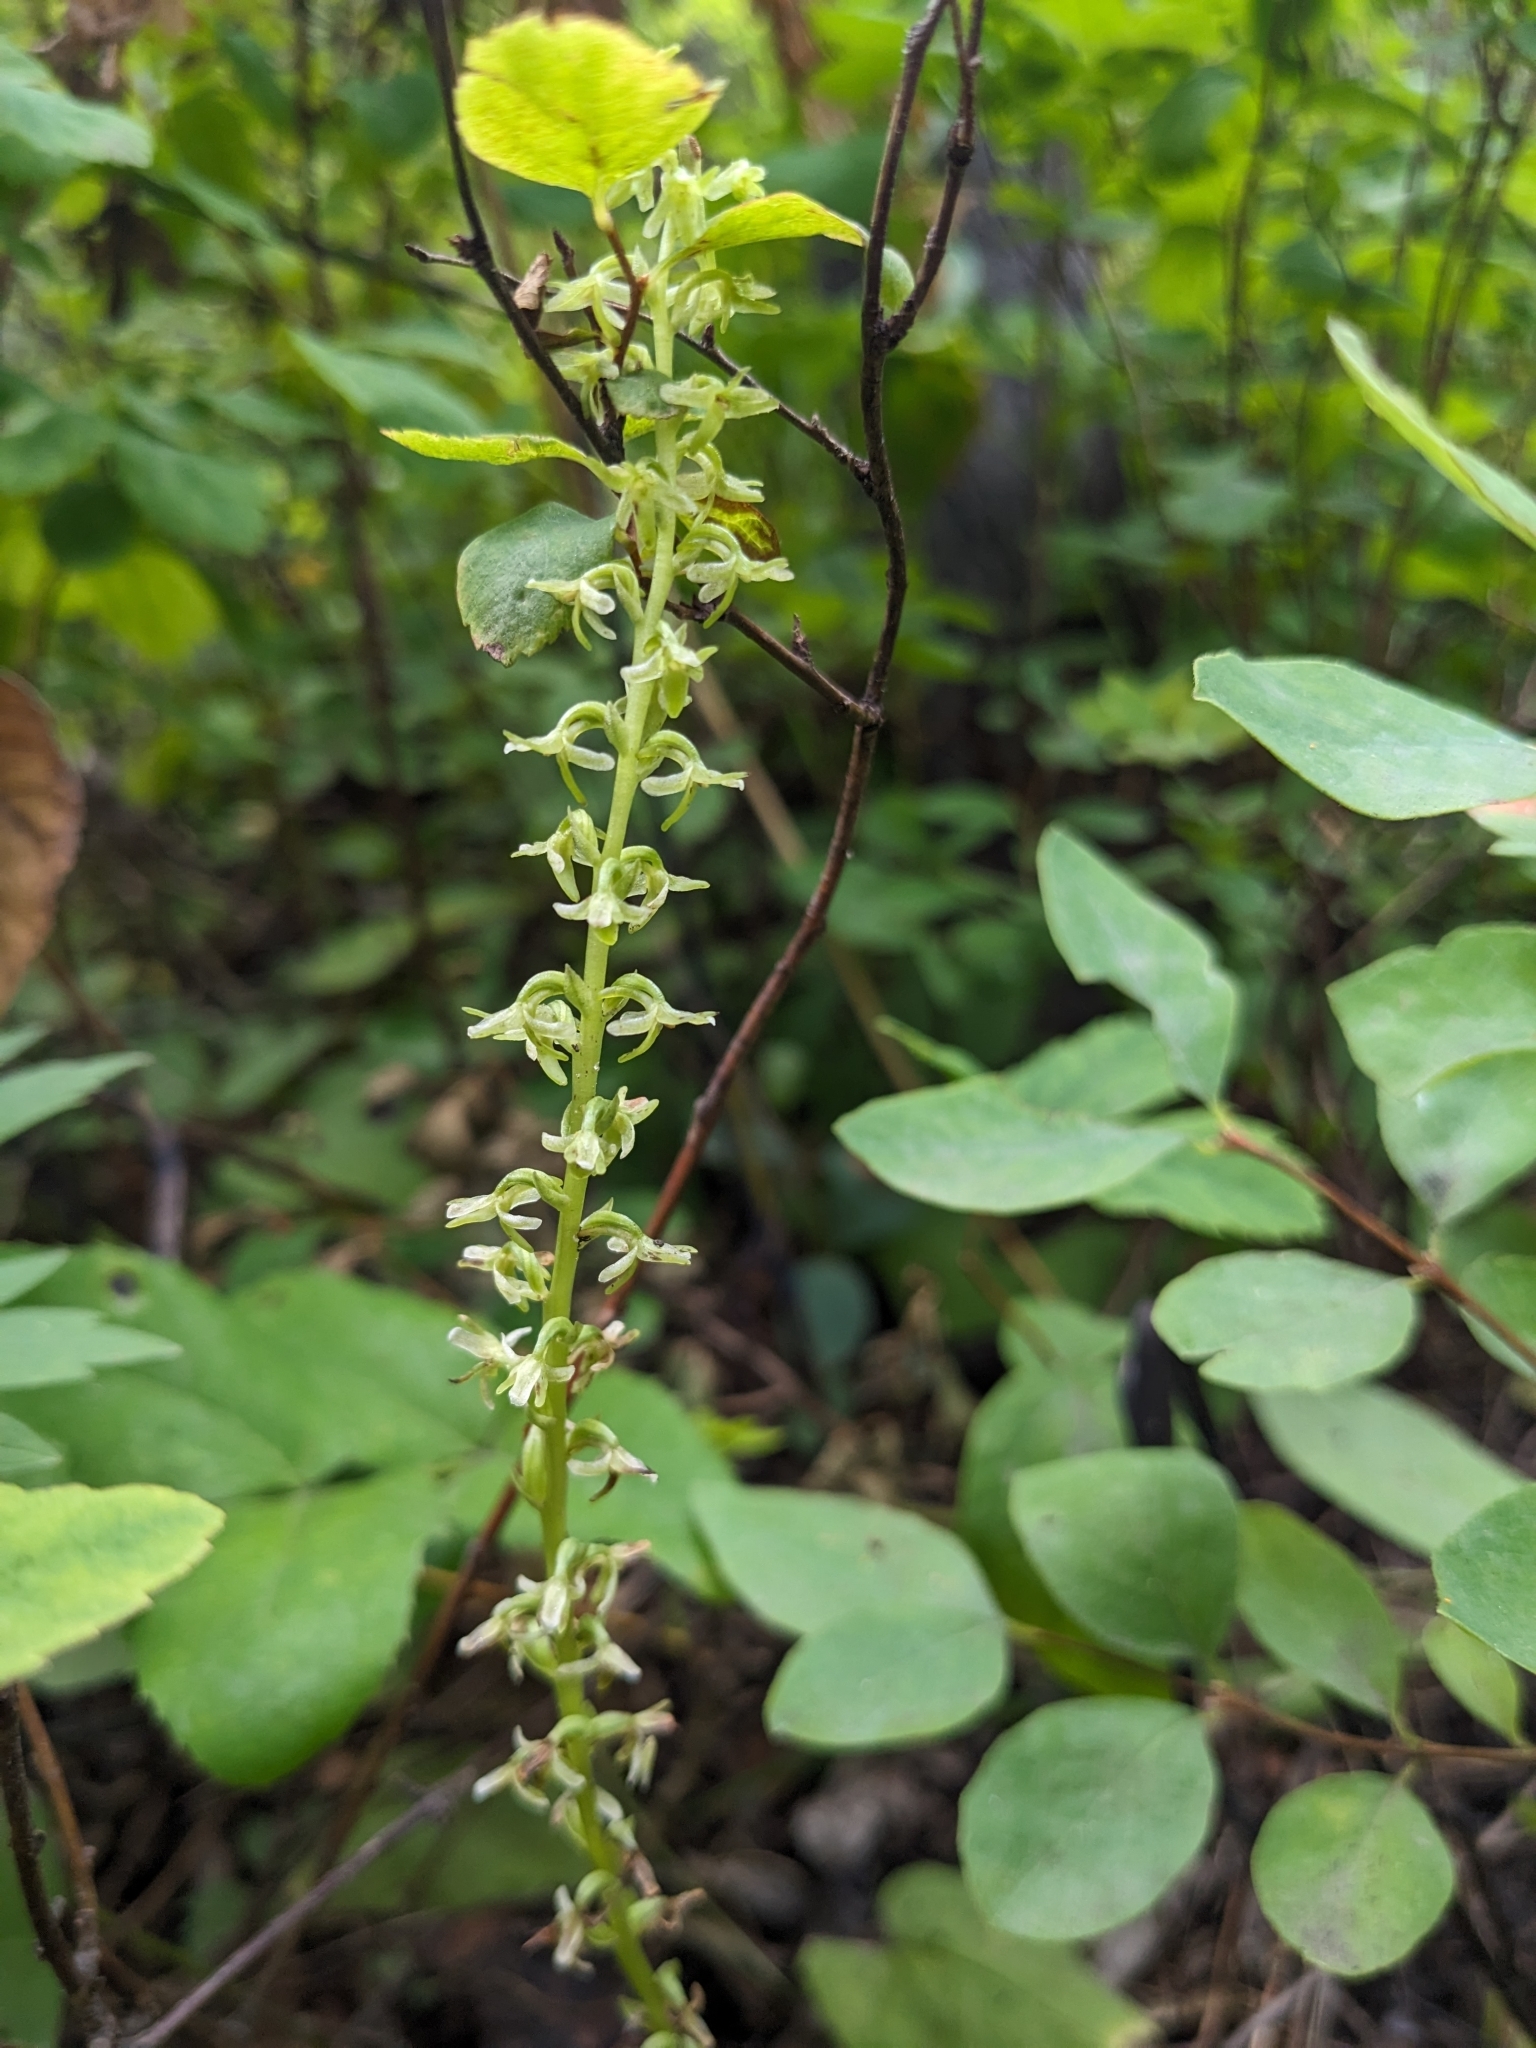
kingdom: Plantae
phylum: Tracheophyta
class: Liliopsida
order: Asparagales
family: Orchidaceae
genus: Platanthera
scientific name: Platanthera unalascensis
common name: Alaska bog orchid
